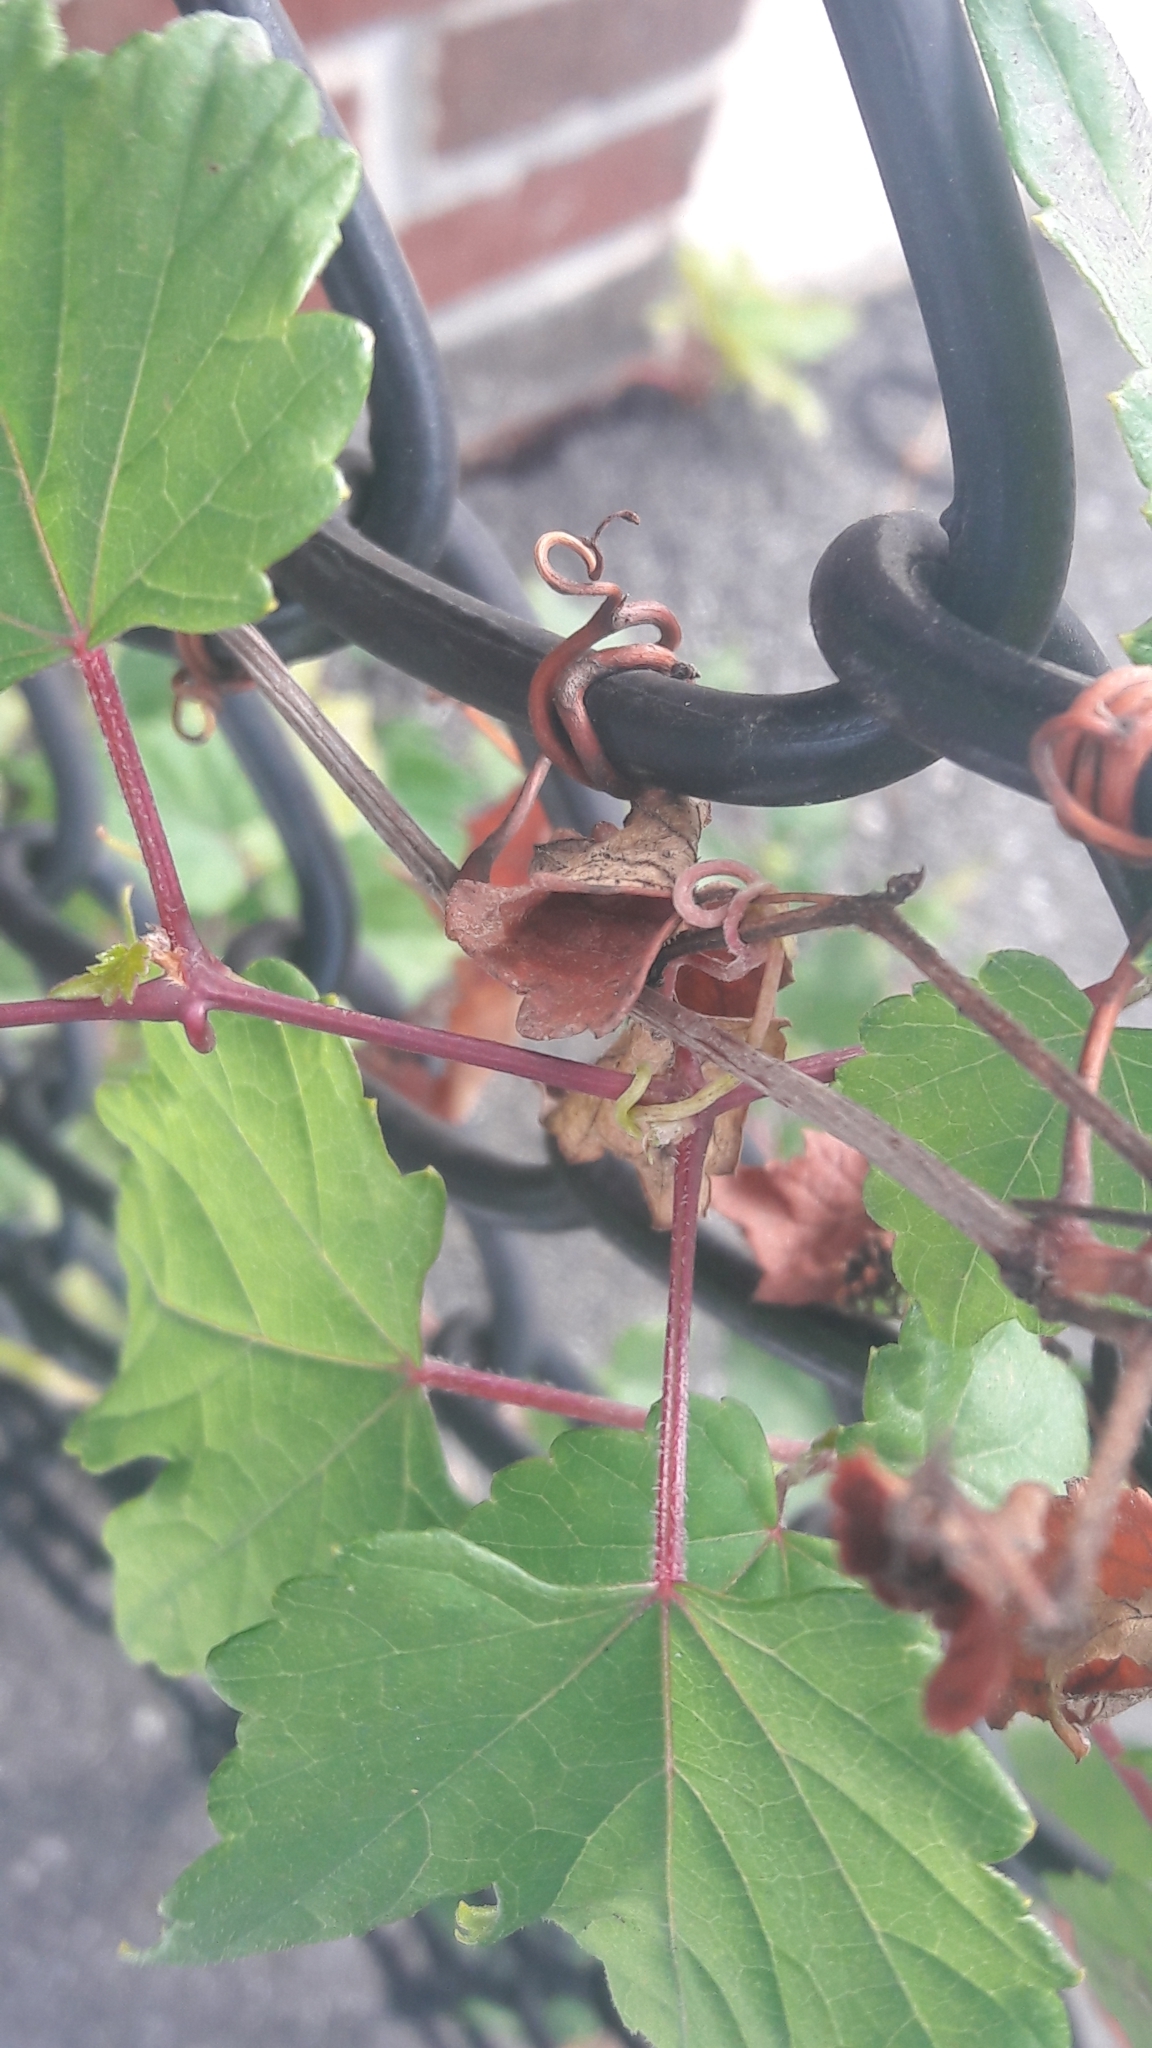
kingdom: Plantae
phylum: Tracheophyta
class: Magnoliopsida
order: Vitales
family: Vitaceae
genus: Ampelopsis
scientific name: Ampelopsis glandulosa
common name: Amur peppervine
